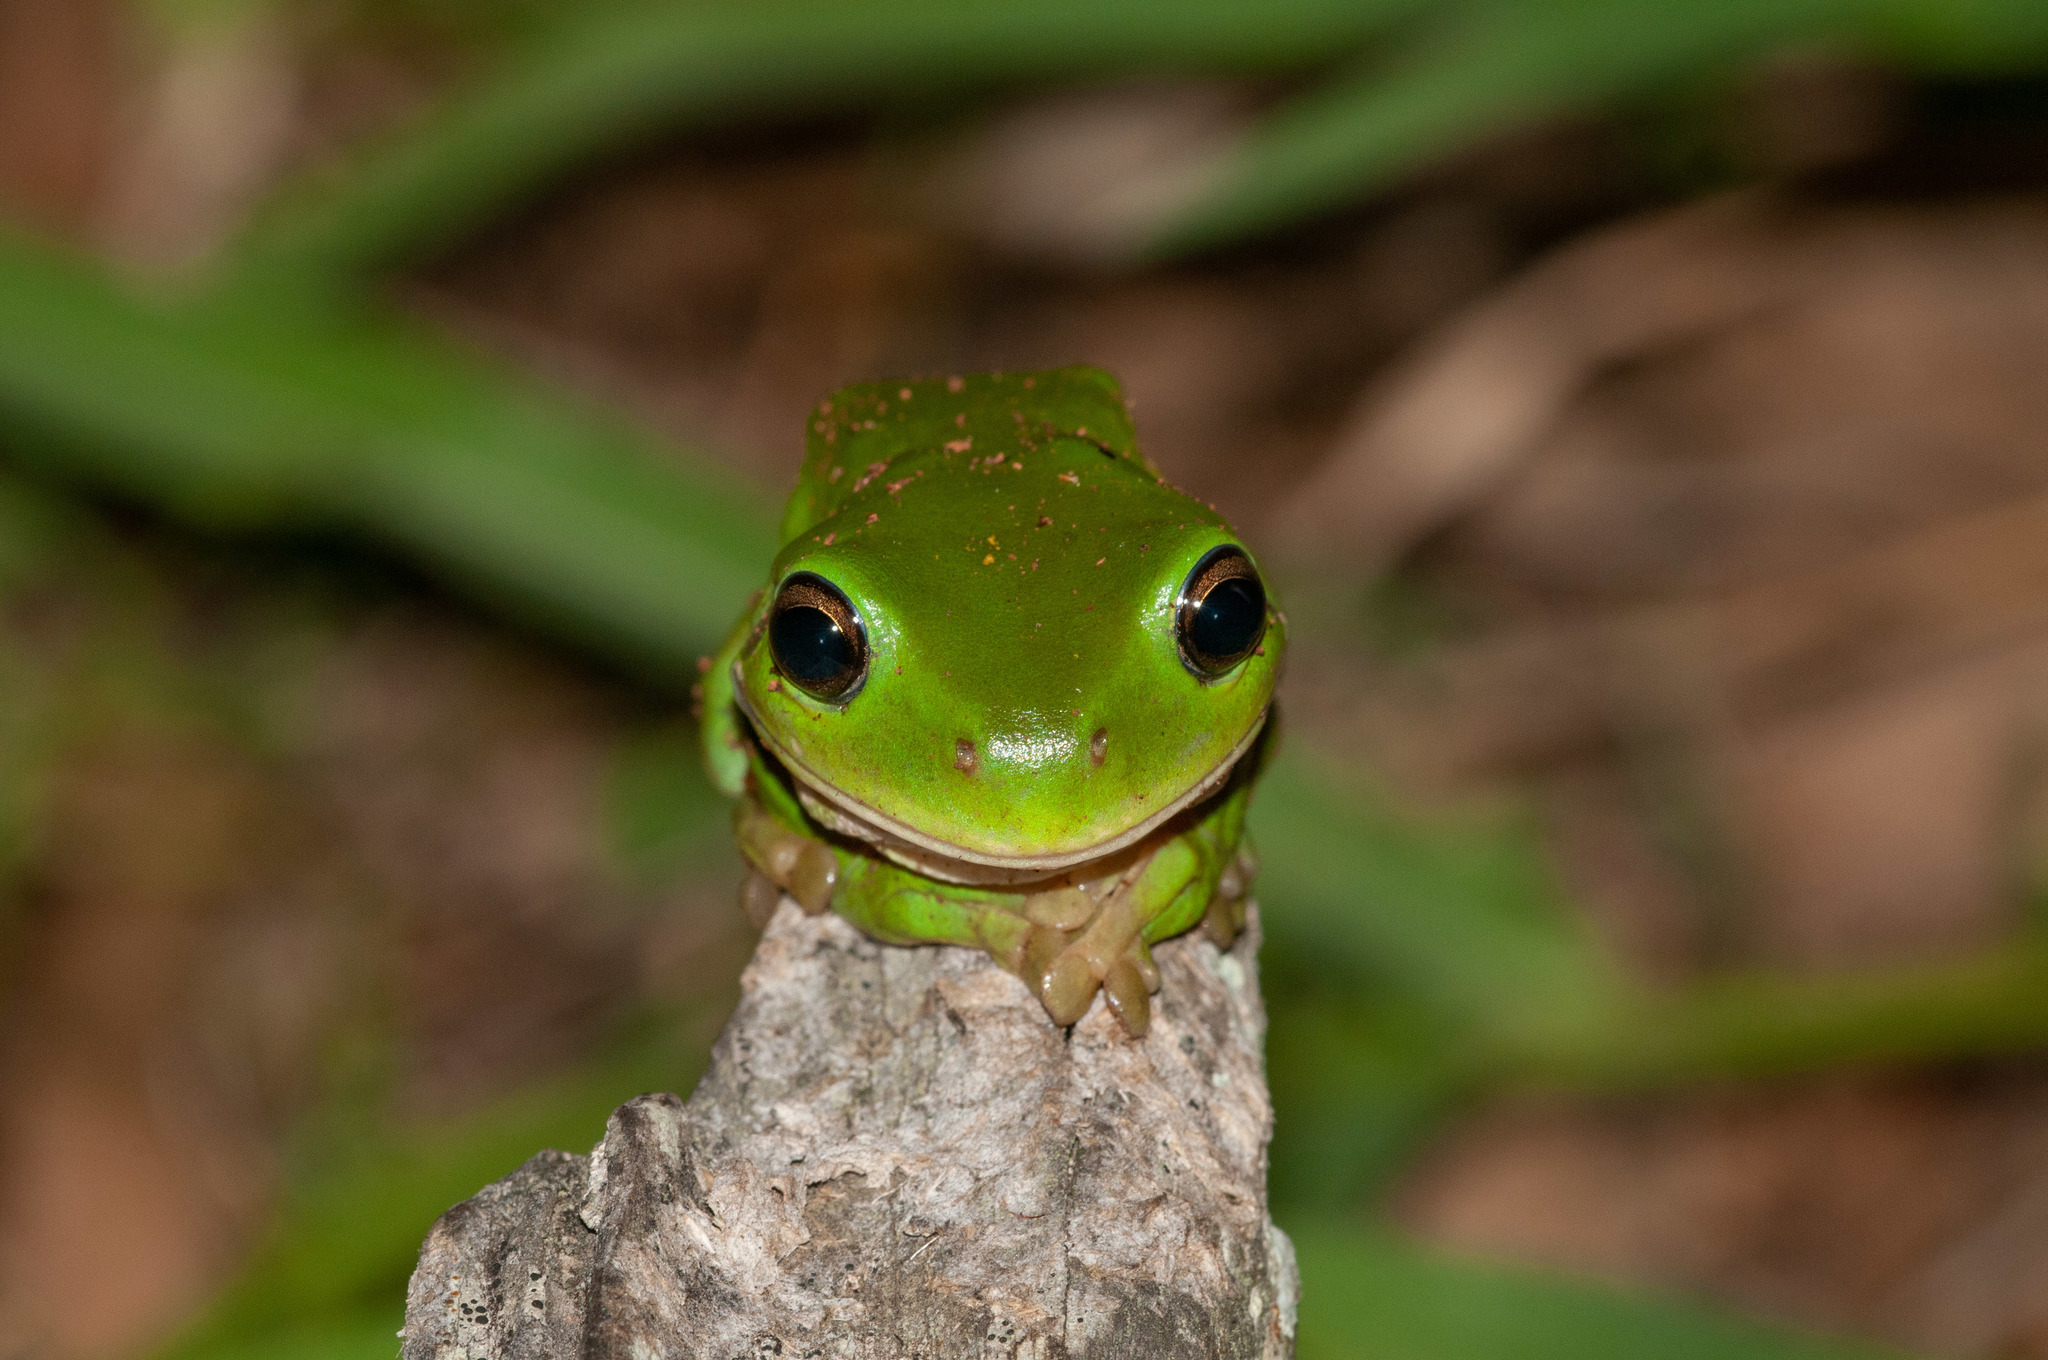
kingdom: Animalia
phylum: Chordata
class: Amphibia
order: Anura
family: Pelodryadidae
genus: Ranoidea
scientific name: Ranoidea caerulea
